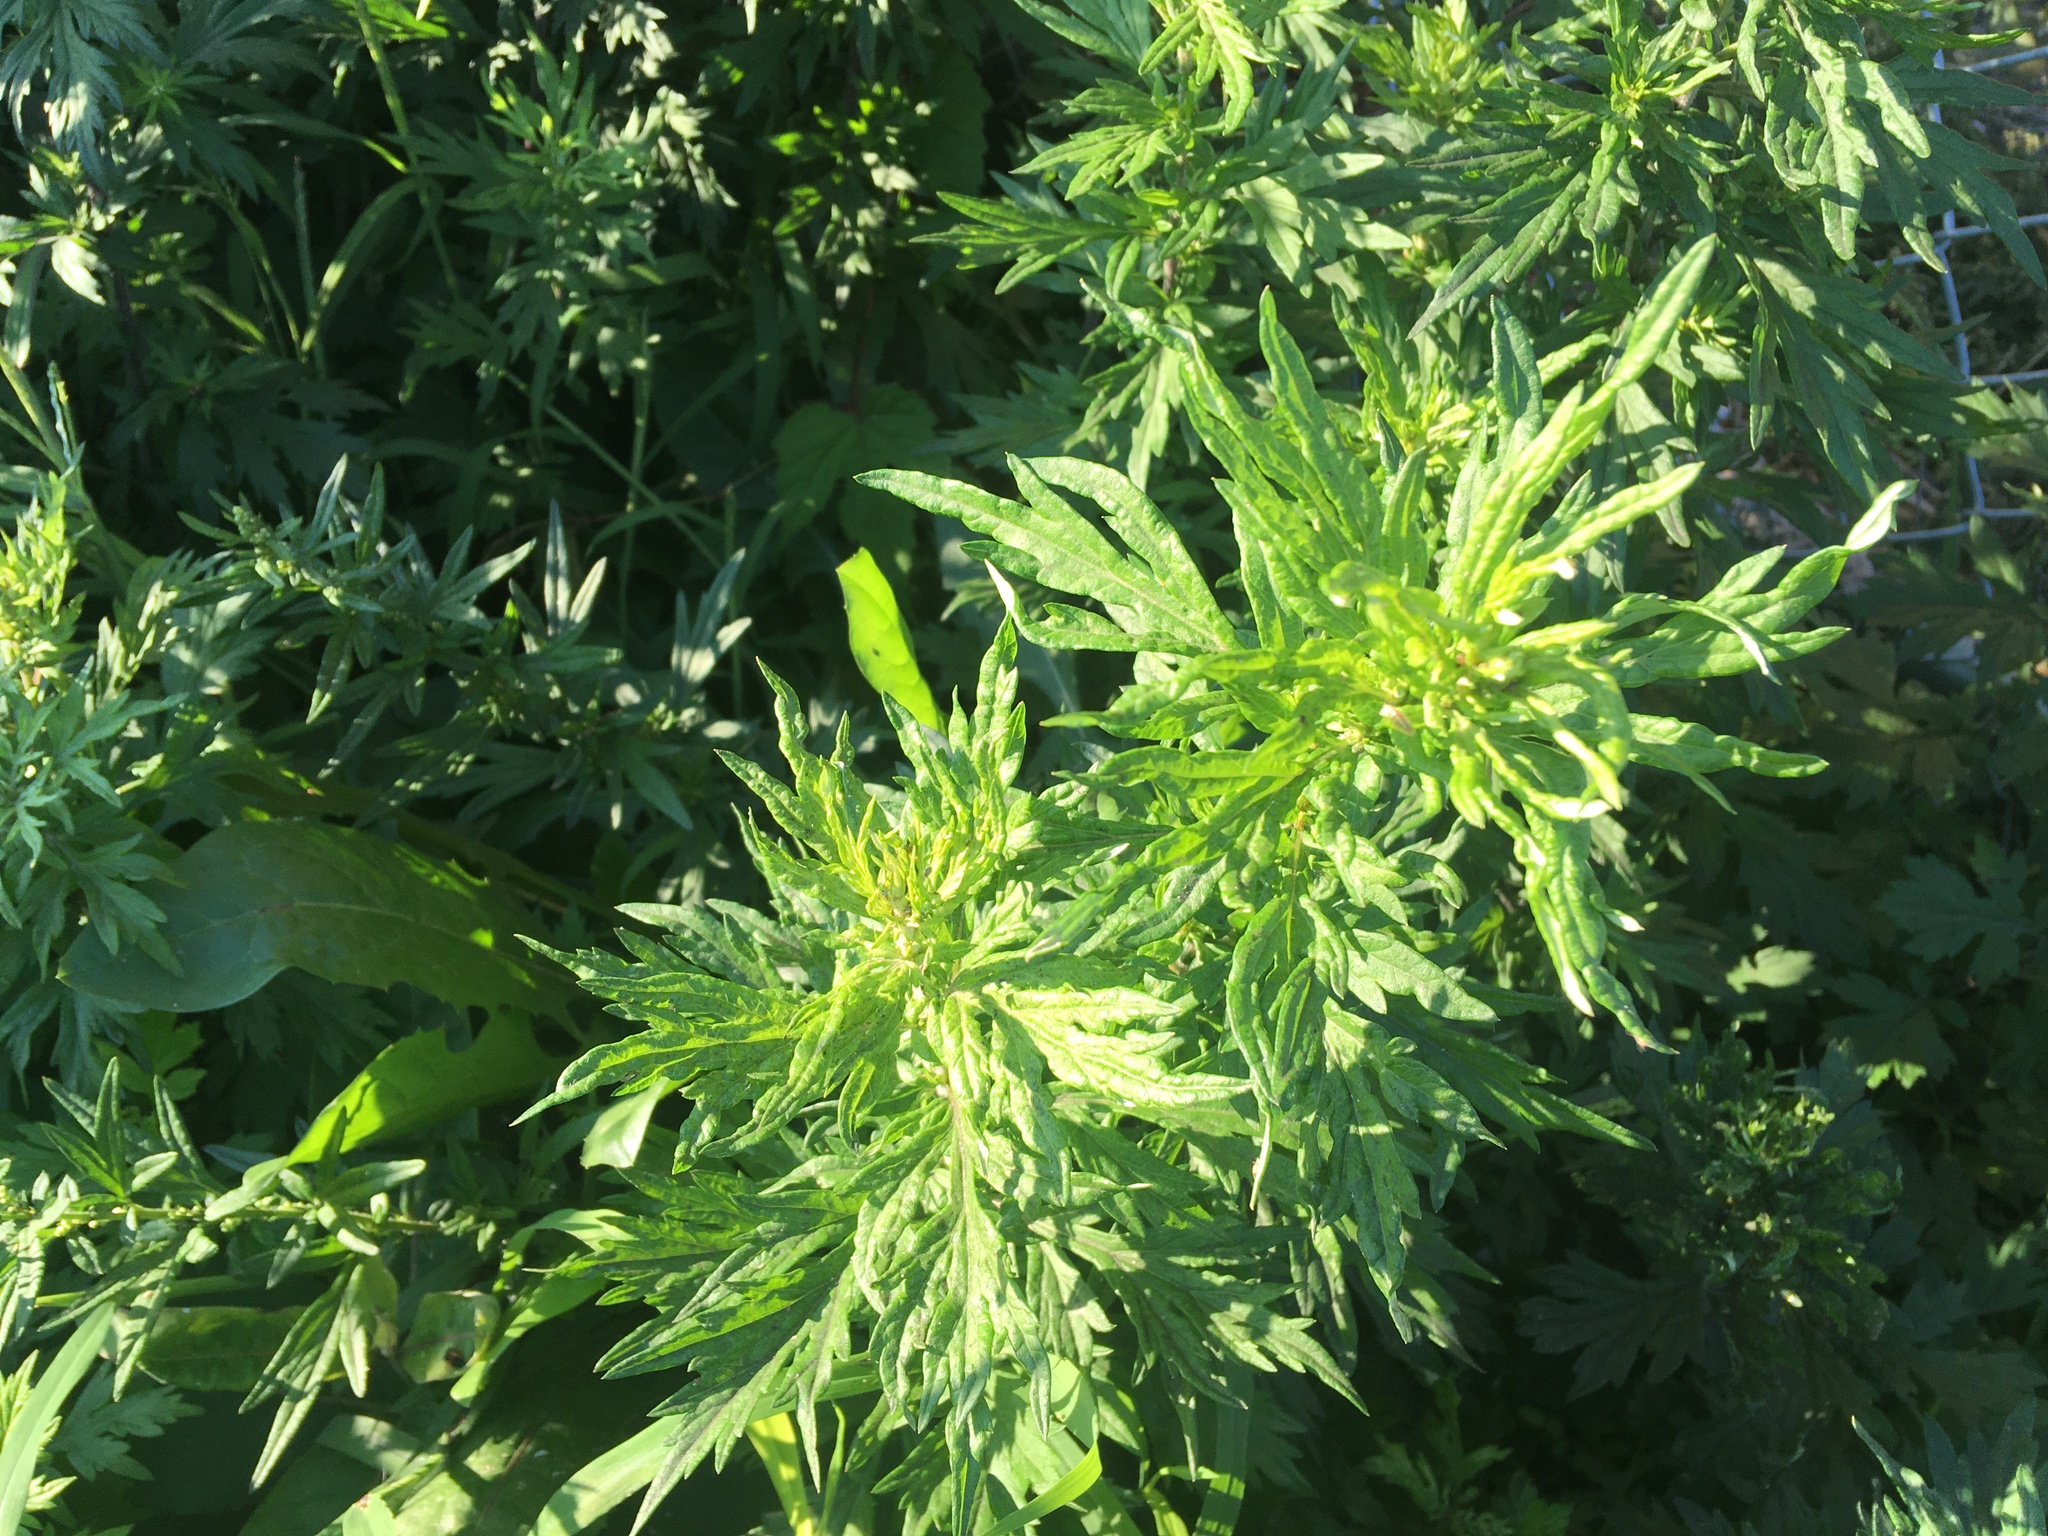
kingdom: Plantae
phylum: Tracheophyta
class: Magnoliopsida
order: Asterales
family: Asteraceae
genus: Artemisia
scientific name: Artemisia vulgaris
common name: Mugwort
